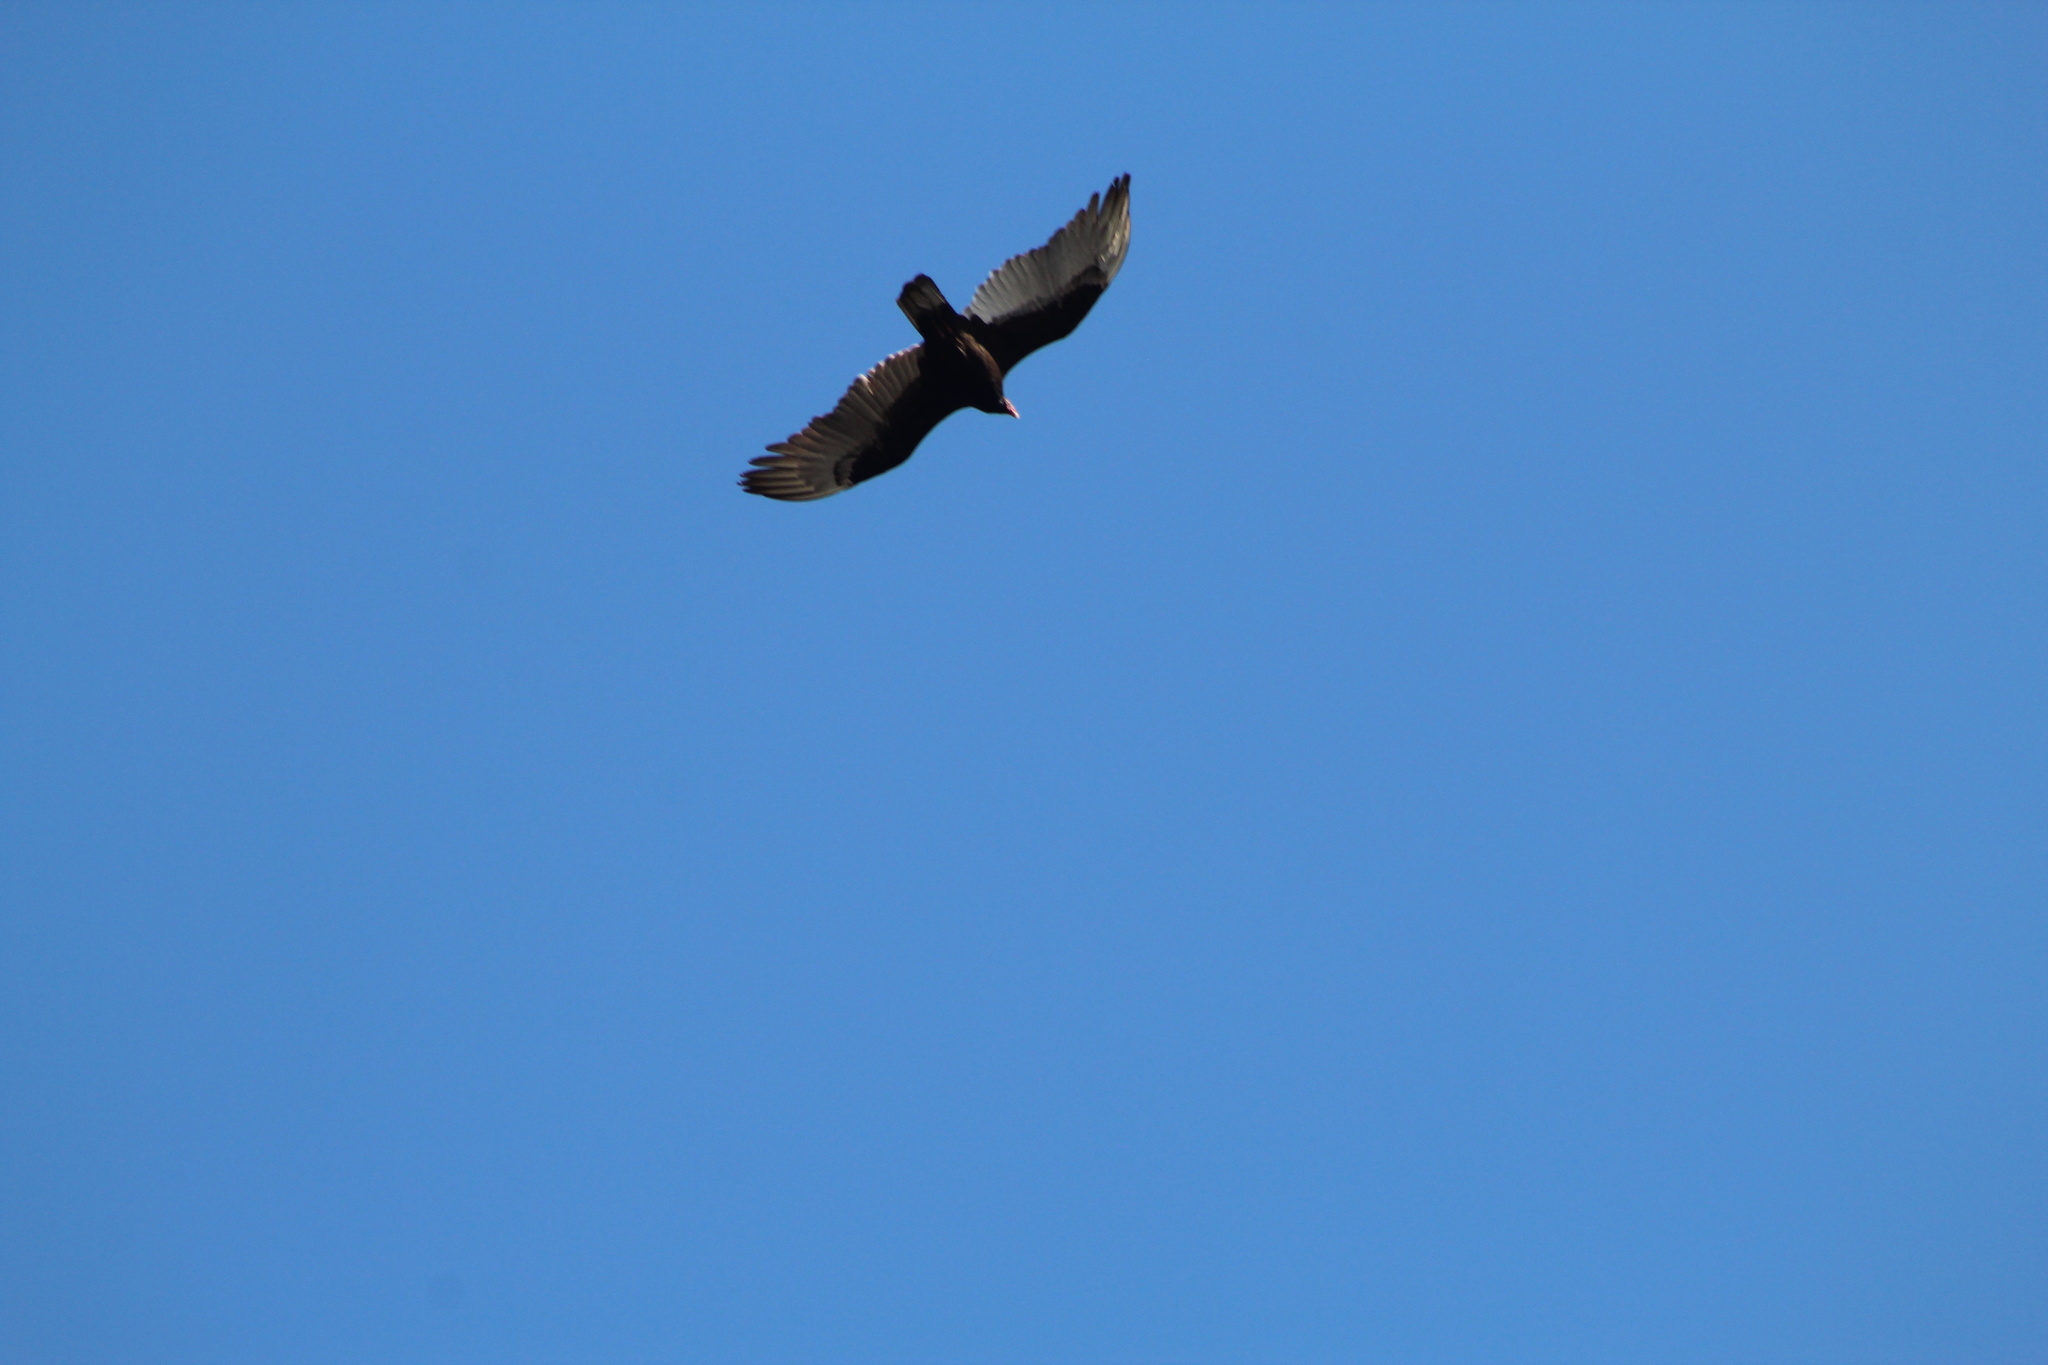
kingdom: Animalia
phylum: Chordata
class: Aves
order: Accipitriformes
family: Cathartidae
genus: Cathartes
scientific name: Cathartes aura
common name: Turkey vulture
